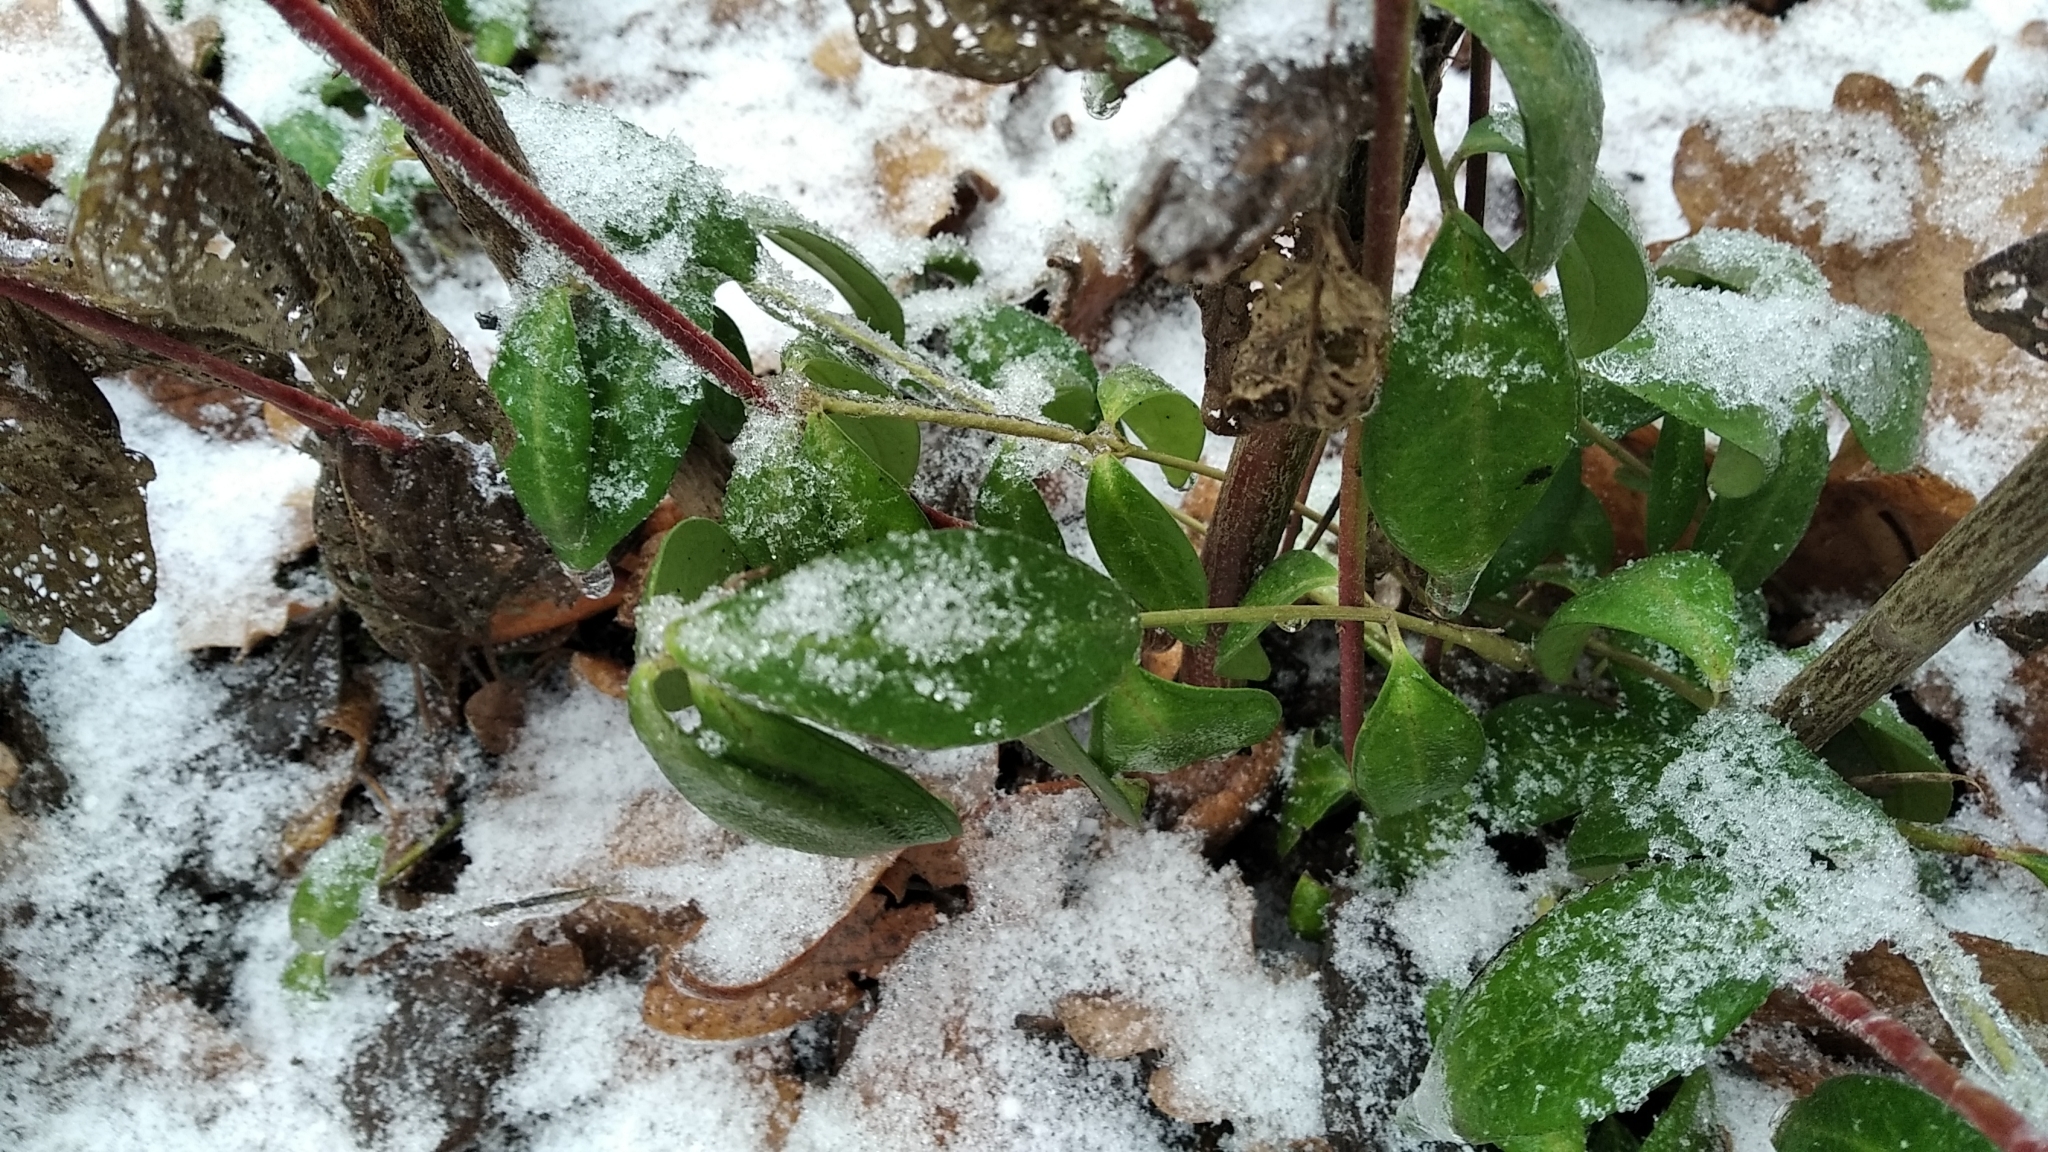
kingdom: Plantae
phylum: Tracheophyta
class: Magnoliopsida
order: Gentianales
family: Apocynaceae
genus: Vinca
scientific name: Vinca minor
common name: Lesser periwinkle
